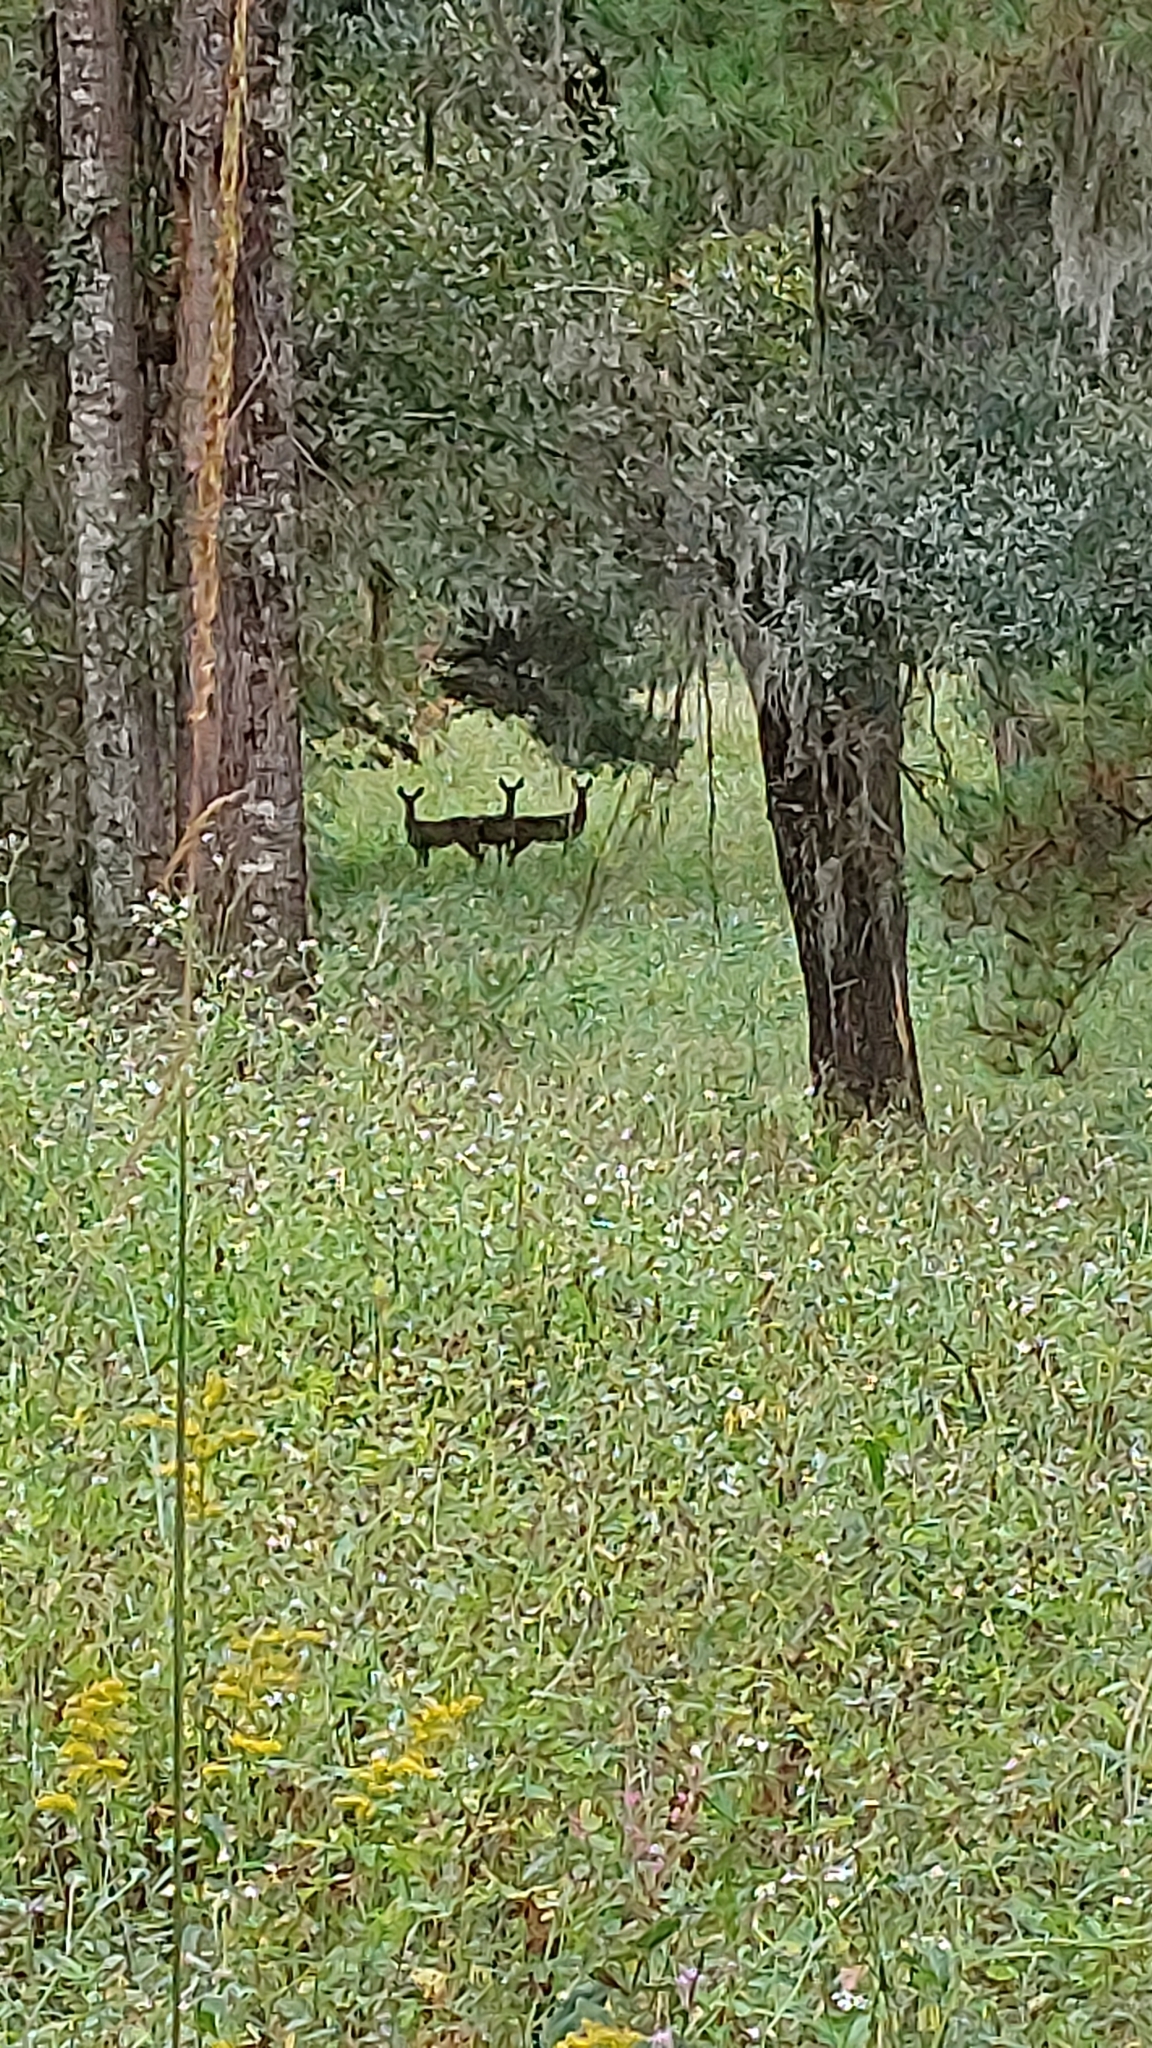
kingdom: Animalia
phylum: Chordata
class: Mammalia
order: Artiodactyla
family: Cervidae
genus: Odocoileus
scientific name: Odocoileus virginianus
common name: White-tailed deer
